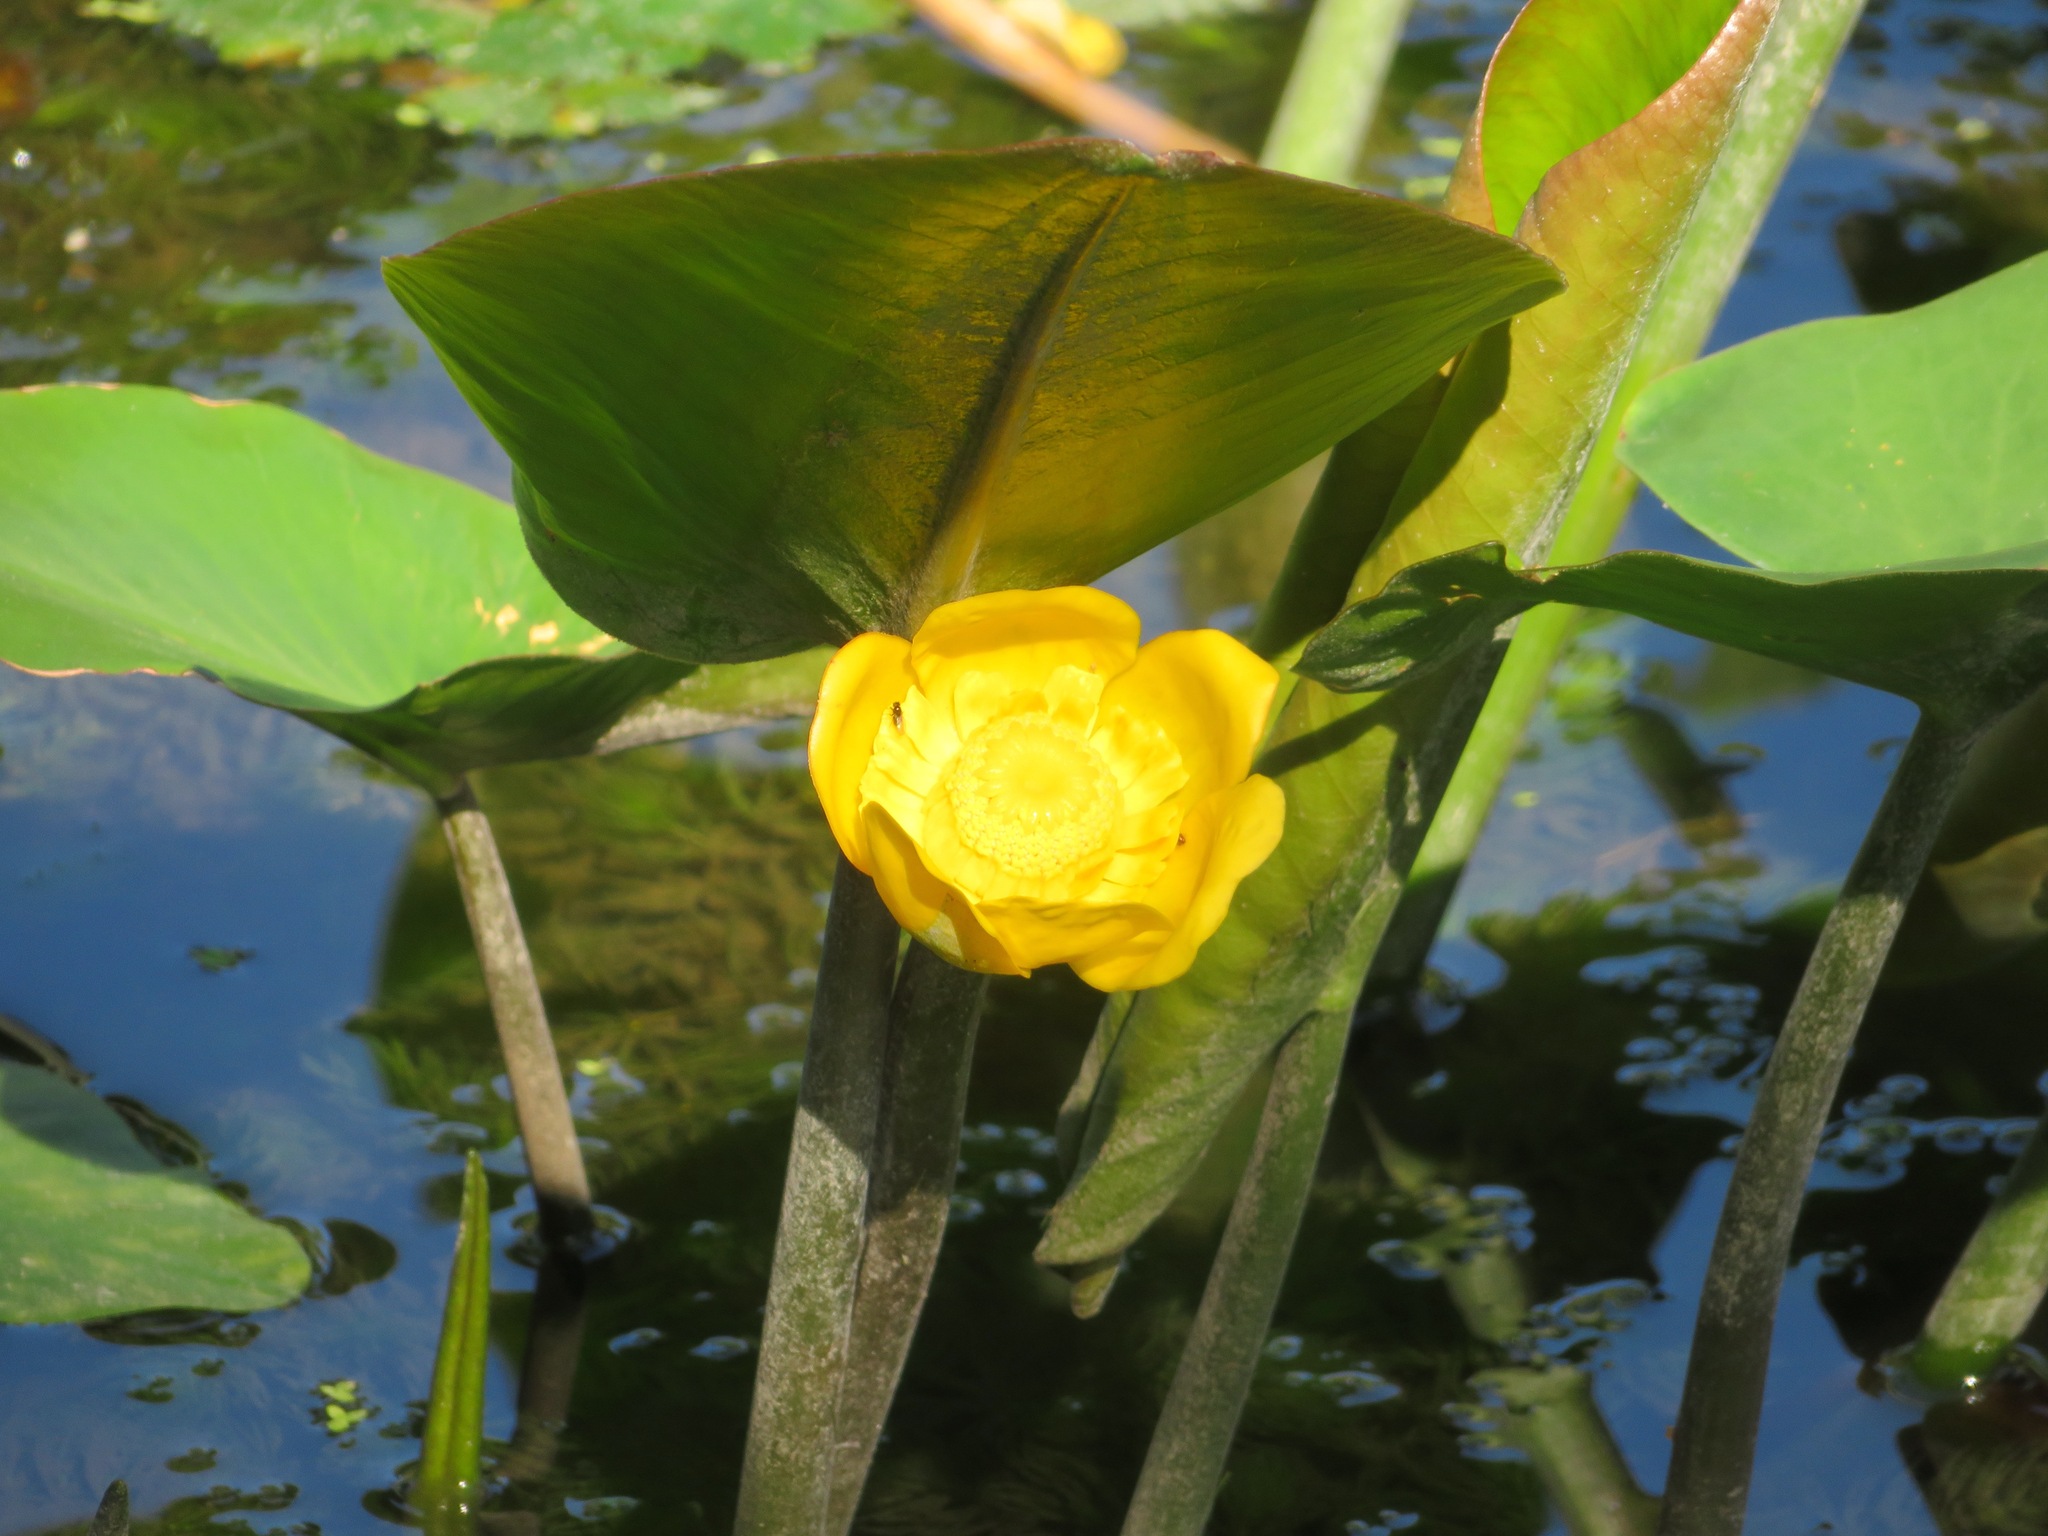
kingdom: Plantae
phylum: Tracheophyta
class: Magnoliopsida
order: Nymphaeales
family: Nymphaeaceae
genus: Nuphar
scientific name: Nuphar japonica
